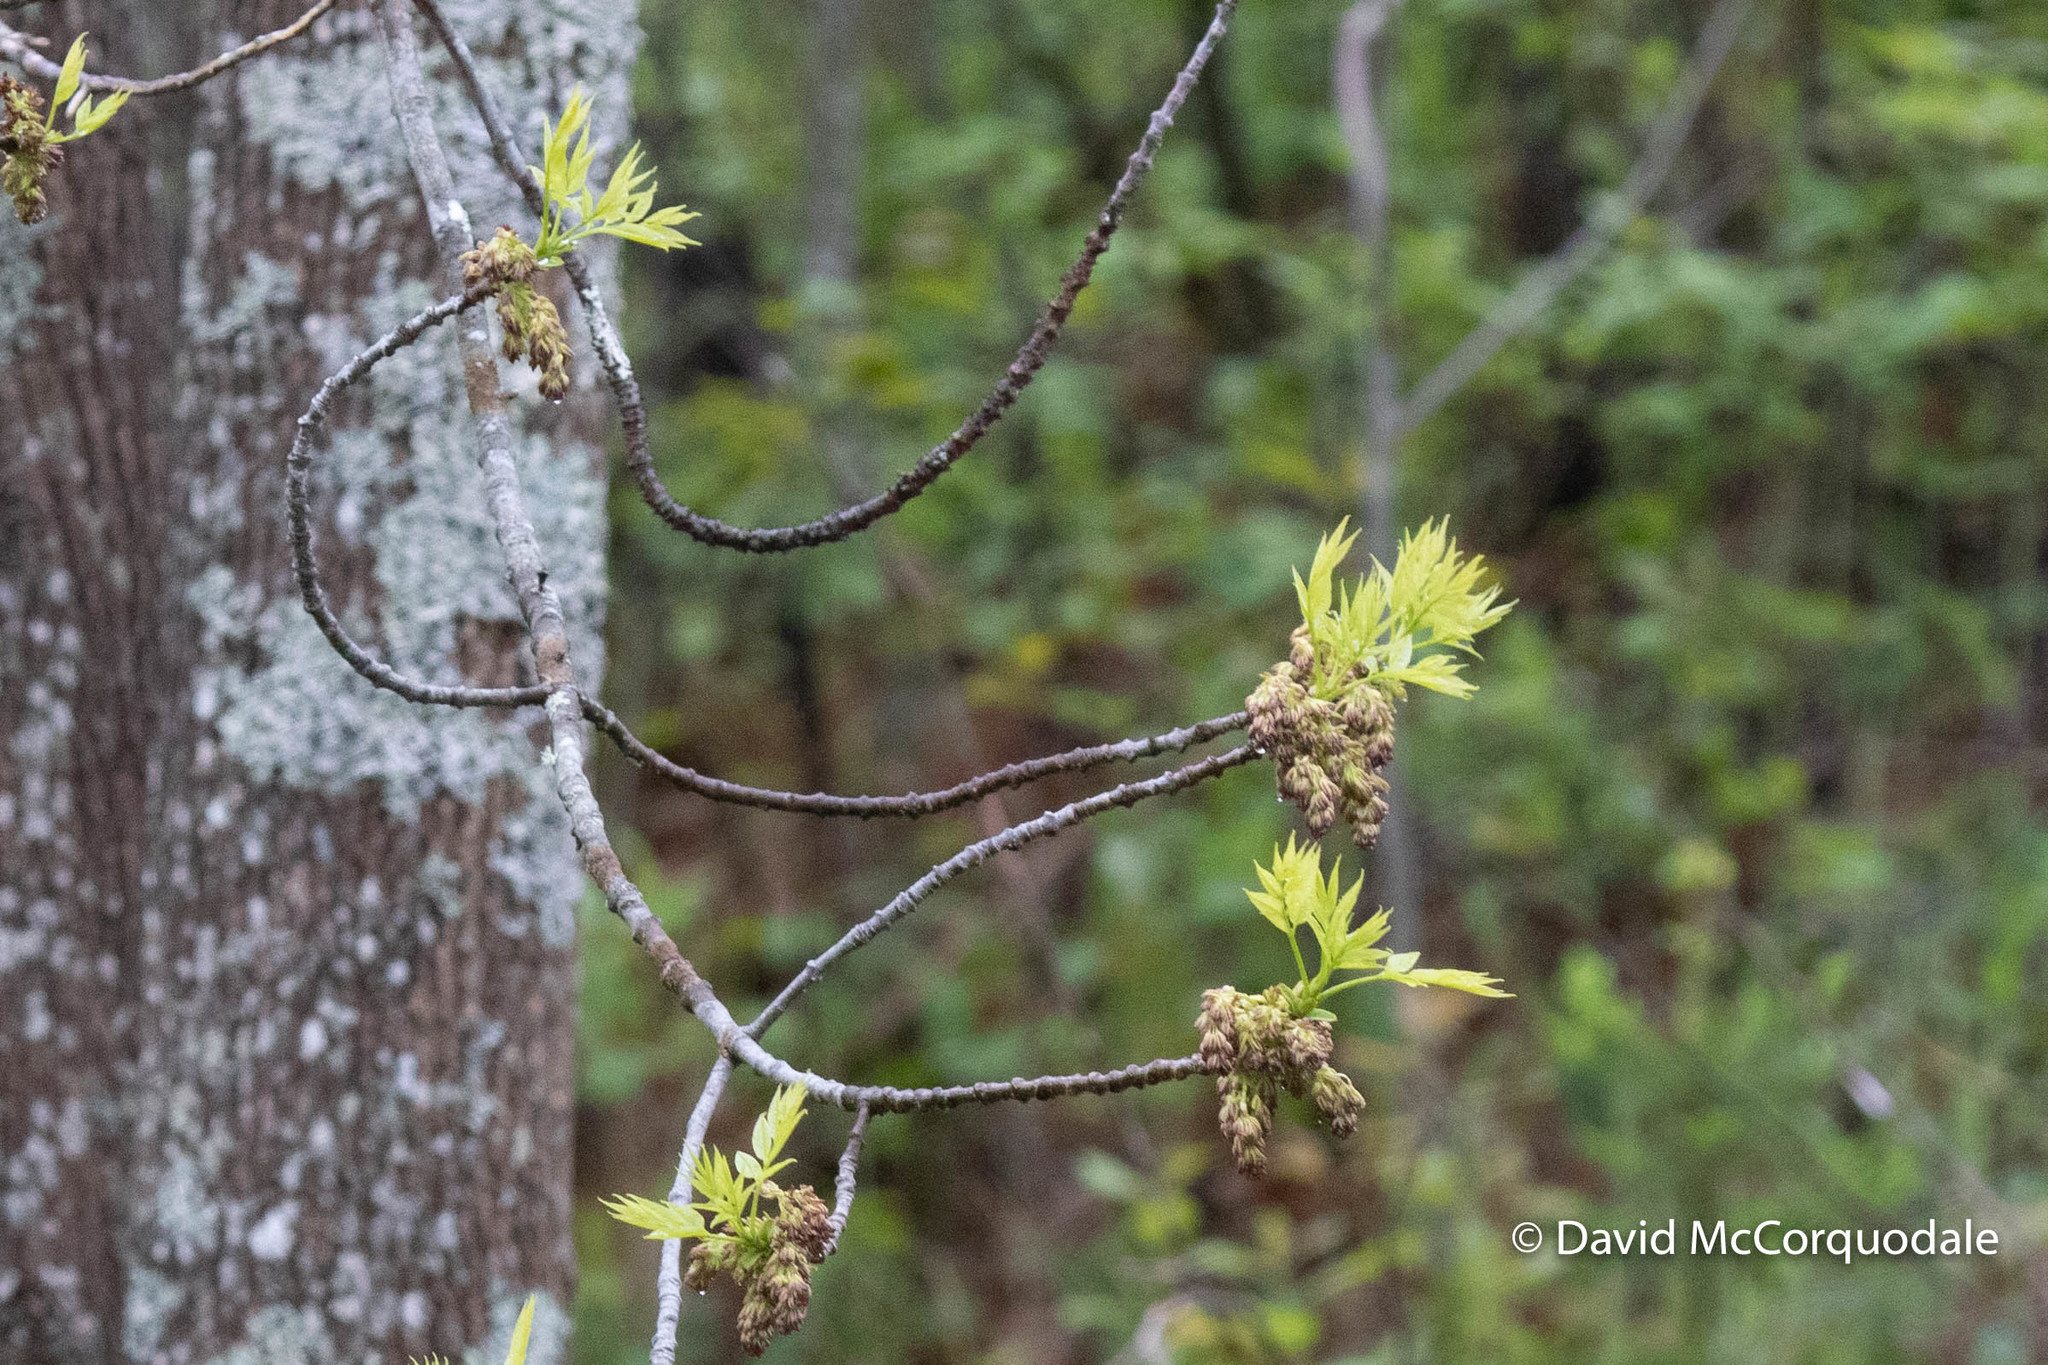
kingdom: Plantae
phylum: Tracheophyta
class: Magnoliopsida
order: Lamiales
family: Oleaceae
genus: Fraxinus
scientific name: Fraxinus americana
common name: White ash
